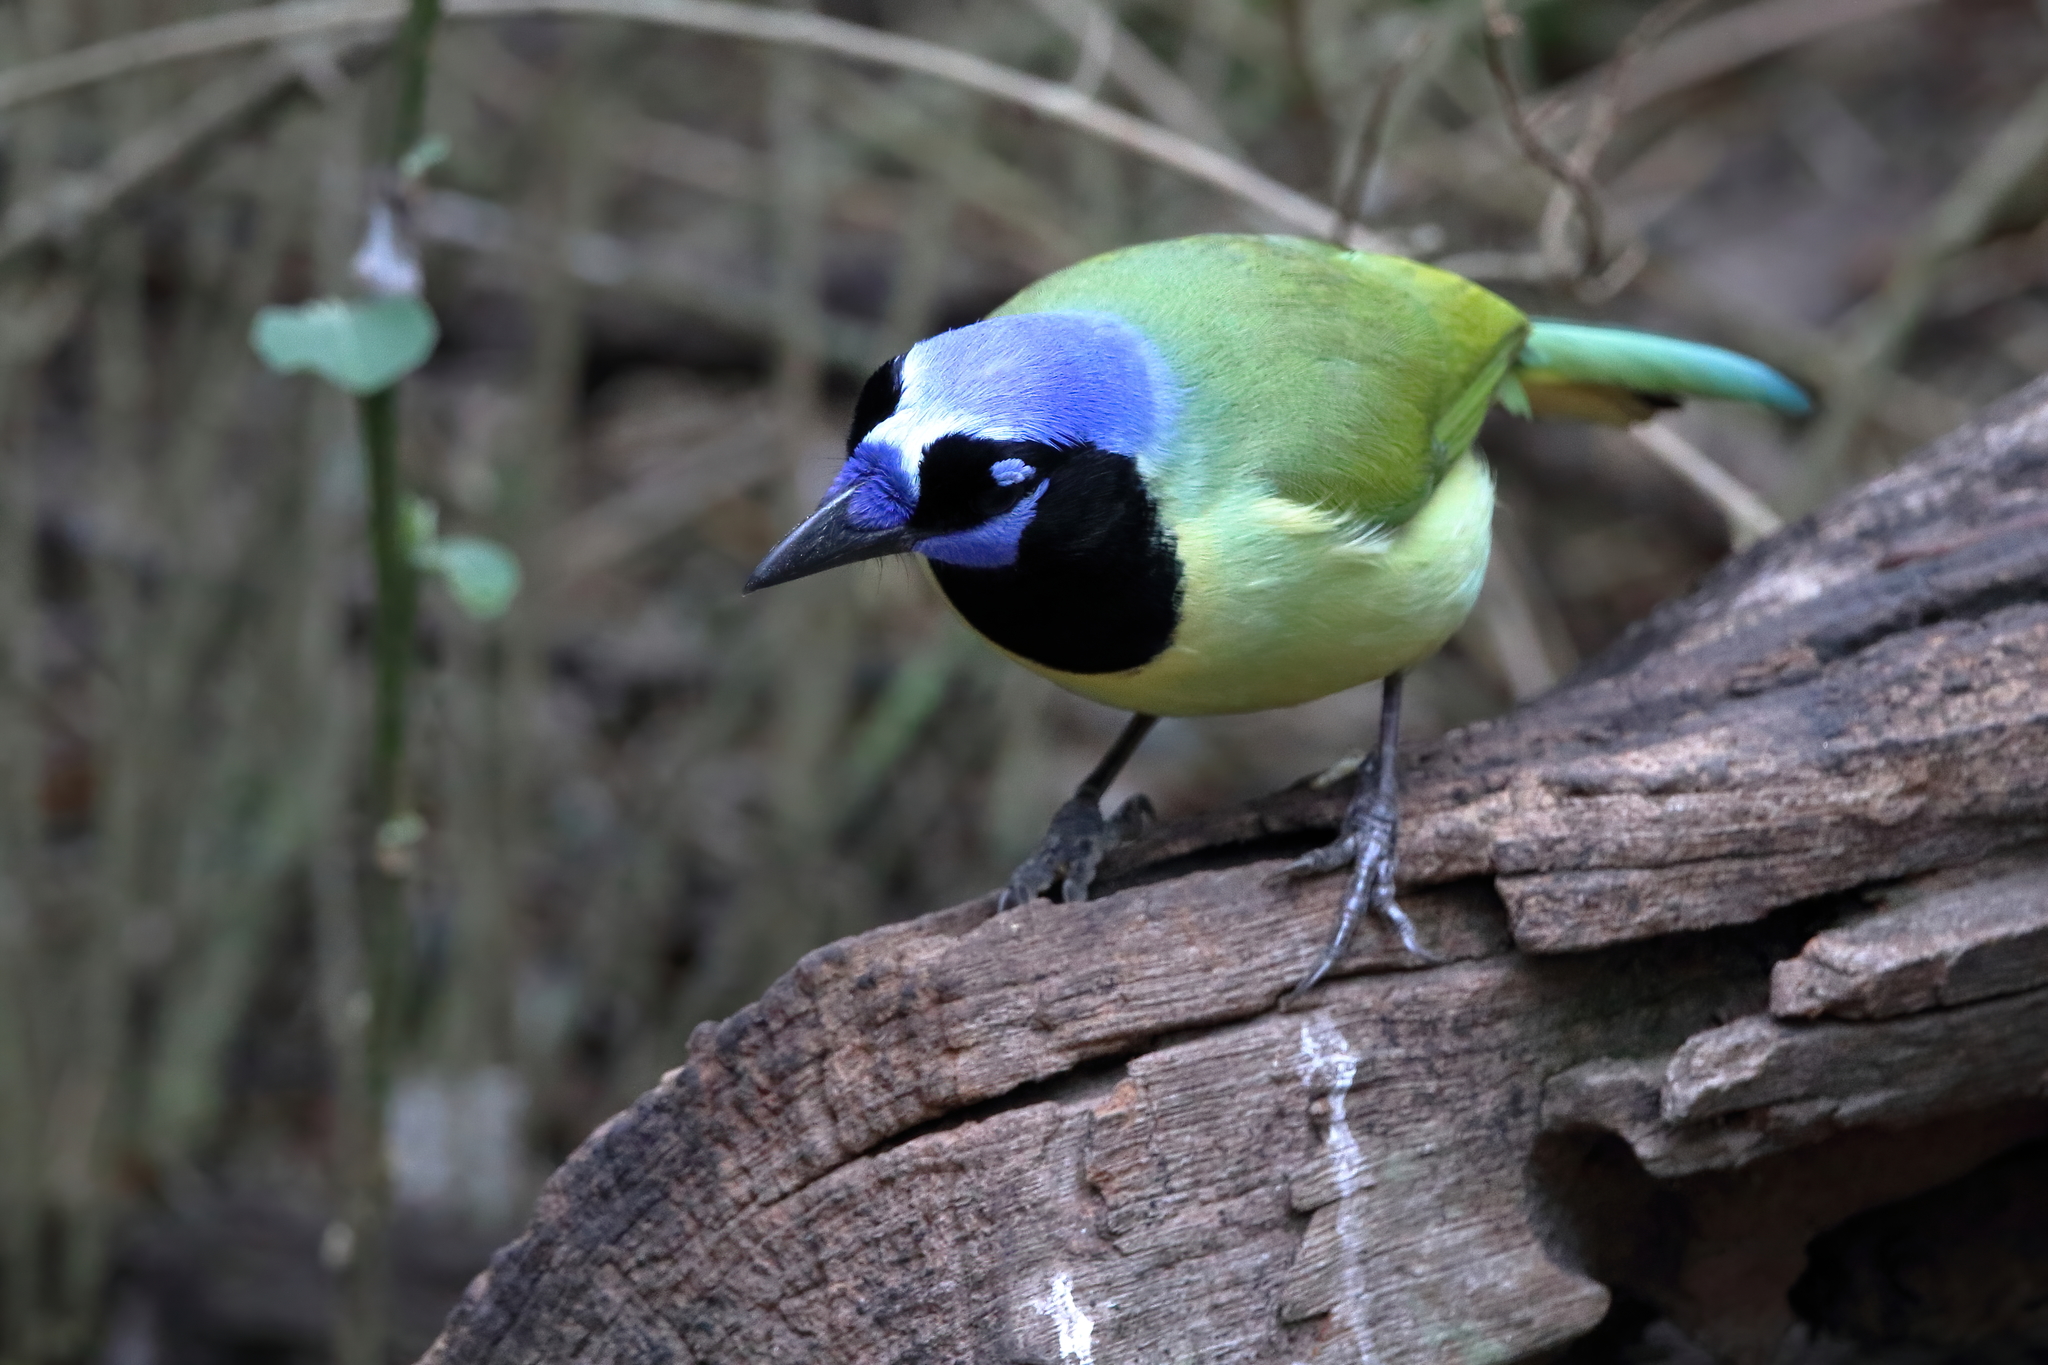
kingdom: Animalia
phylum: Chordata
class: Aves
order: Passeriformes
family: Corvidae
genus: Cyanocorax
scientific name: Cyanocorax yncas
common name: Green jay
